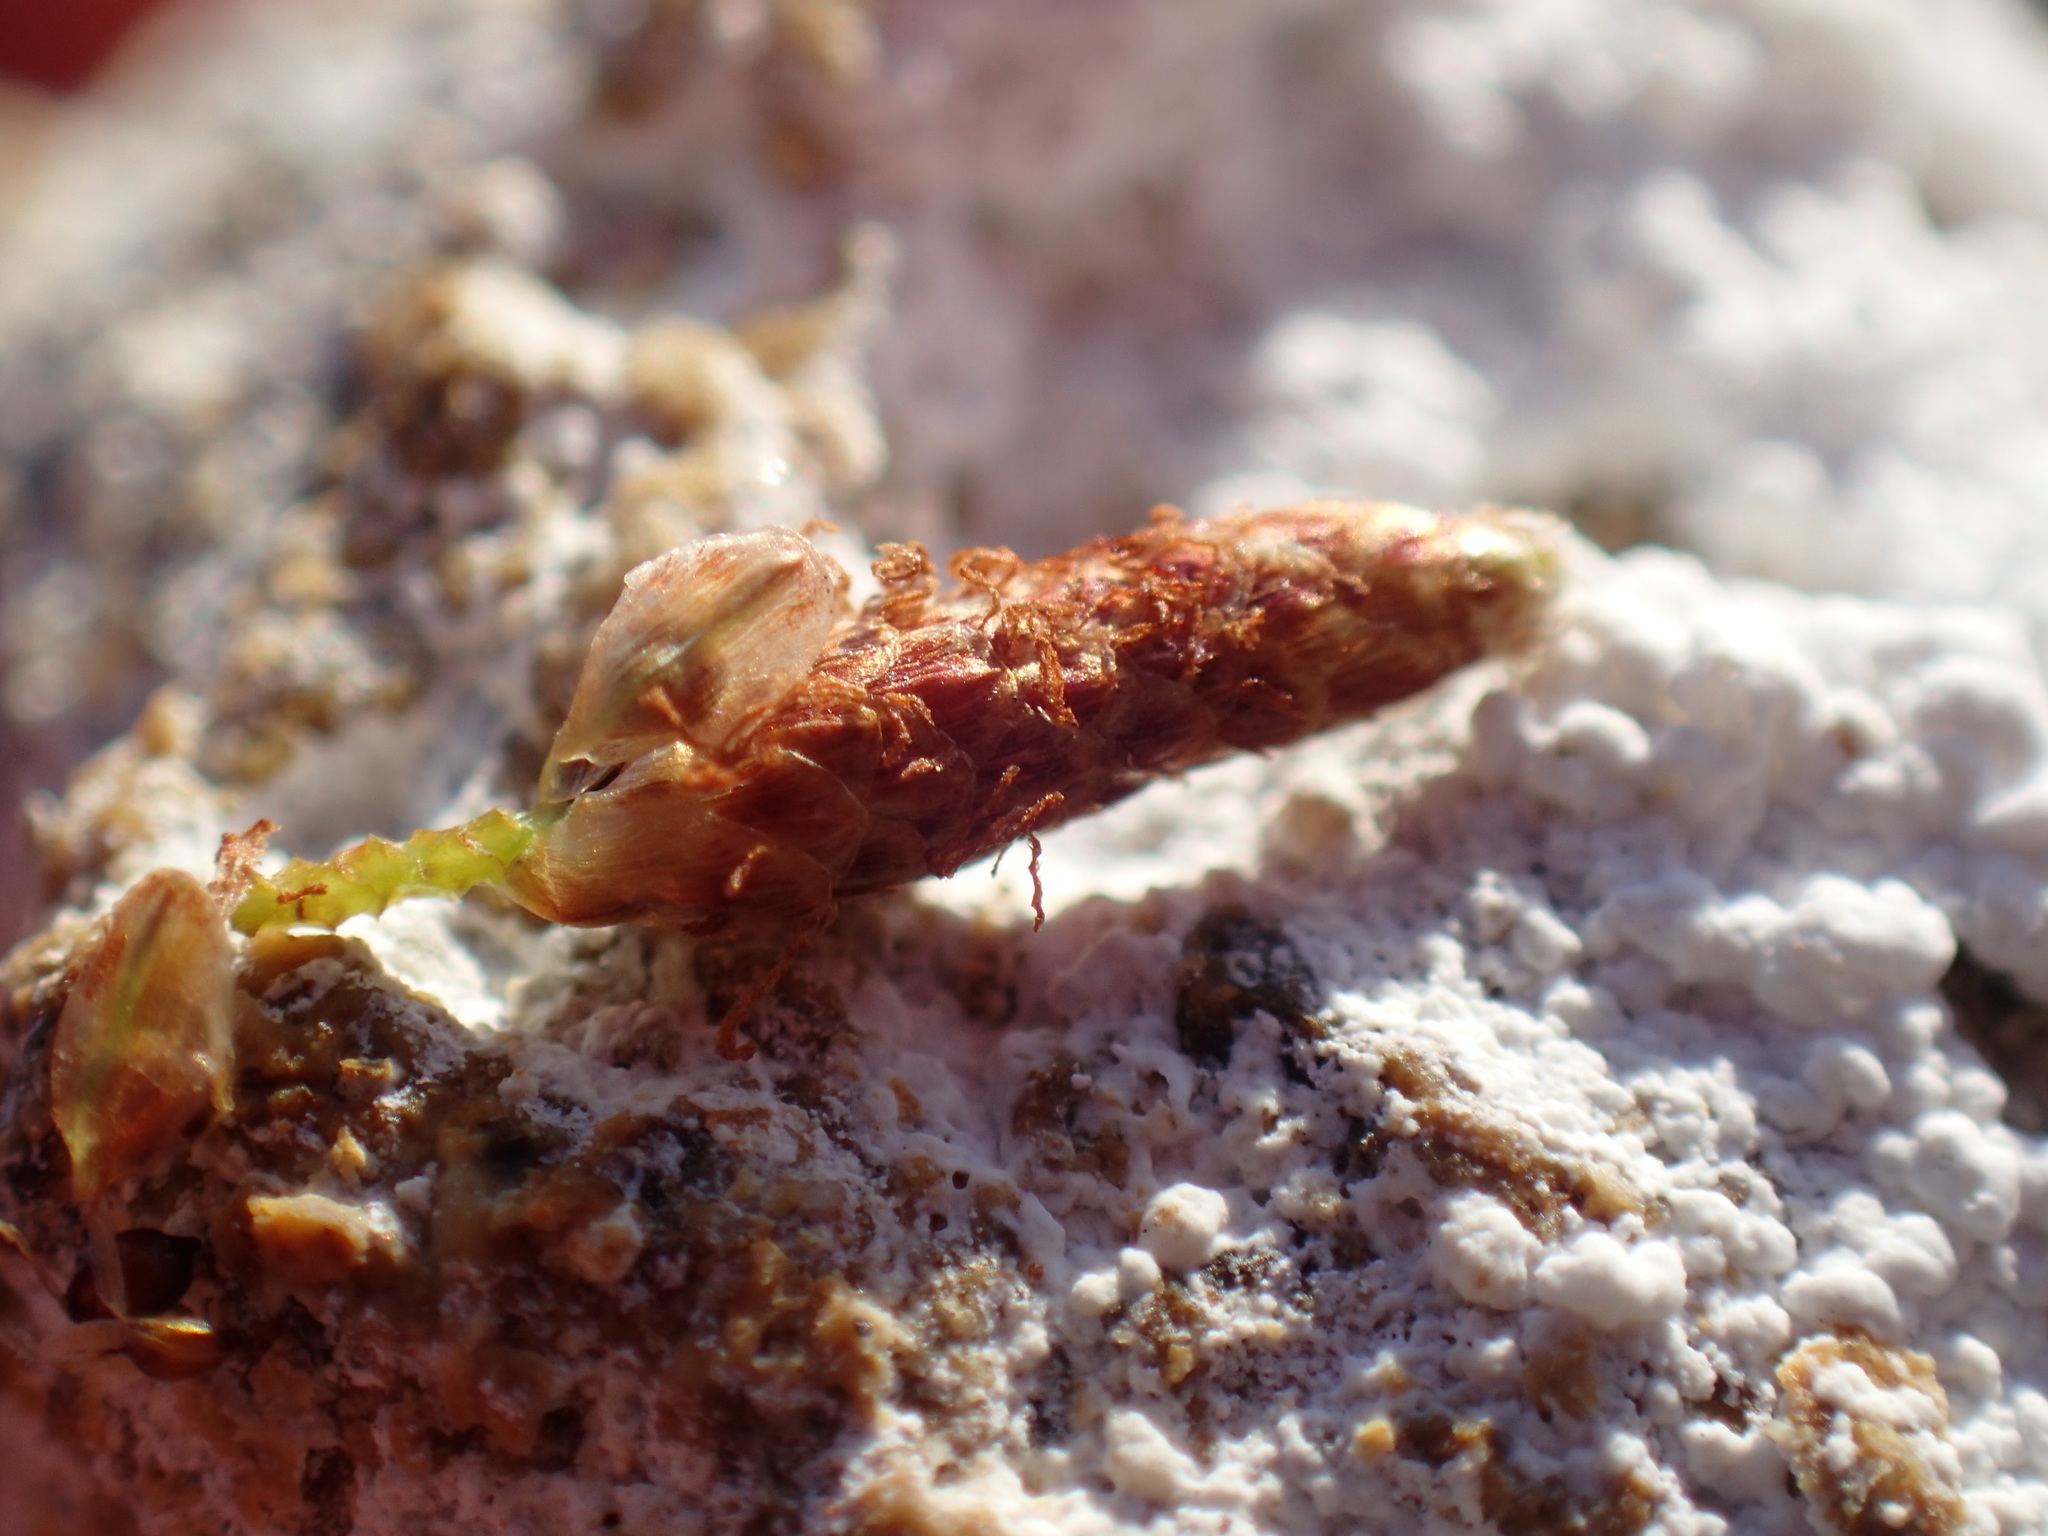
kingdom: Plantae
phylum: Tracheophyta
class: Liliopsida
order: Poales
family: Cyperaceae
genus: Afroscirpoides
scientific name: Afroscirpoides dioeca
